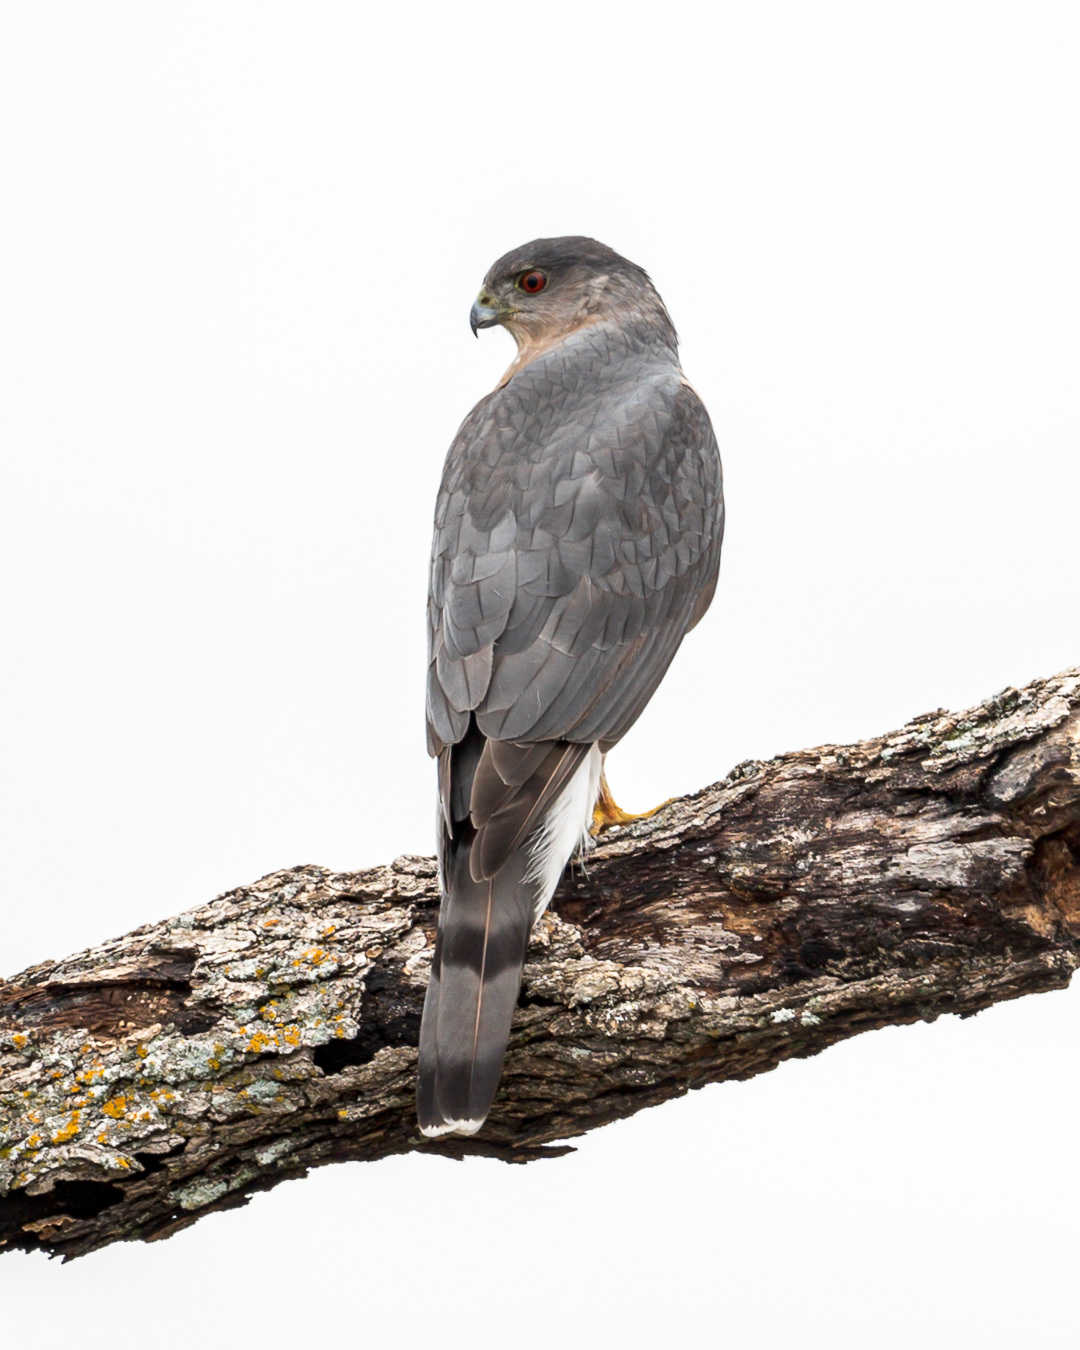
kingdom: Animalia
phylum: Chordata
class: Aves
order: Accipitriformes
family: Accipitridae
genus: Accipiter
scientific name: Accipiter cooperii
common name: Cooper's hawk
